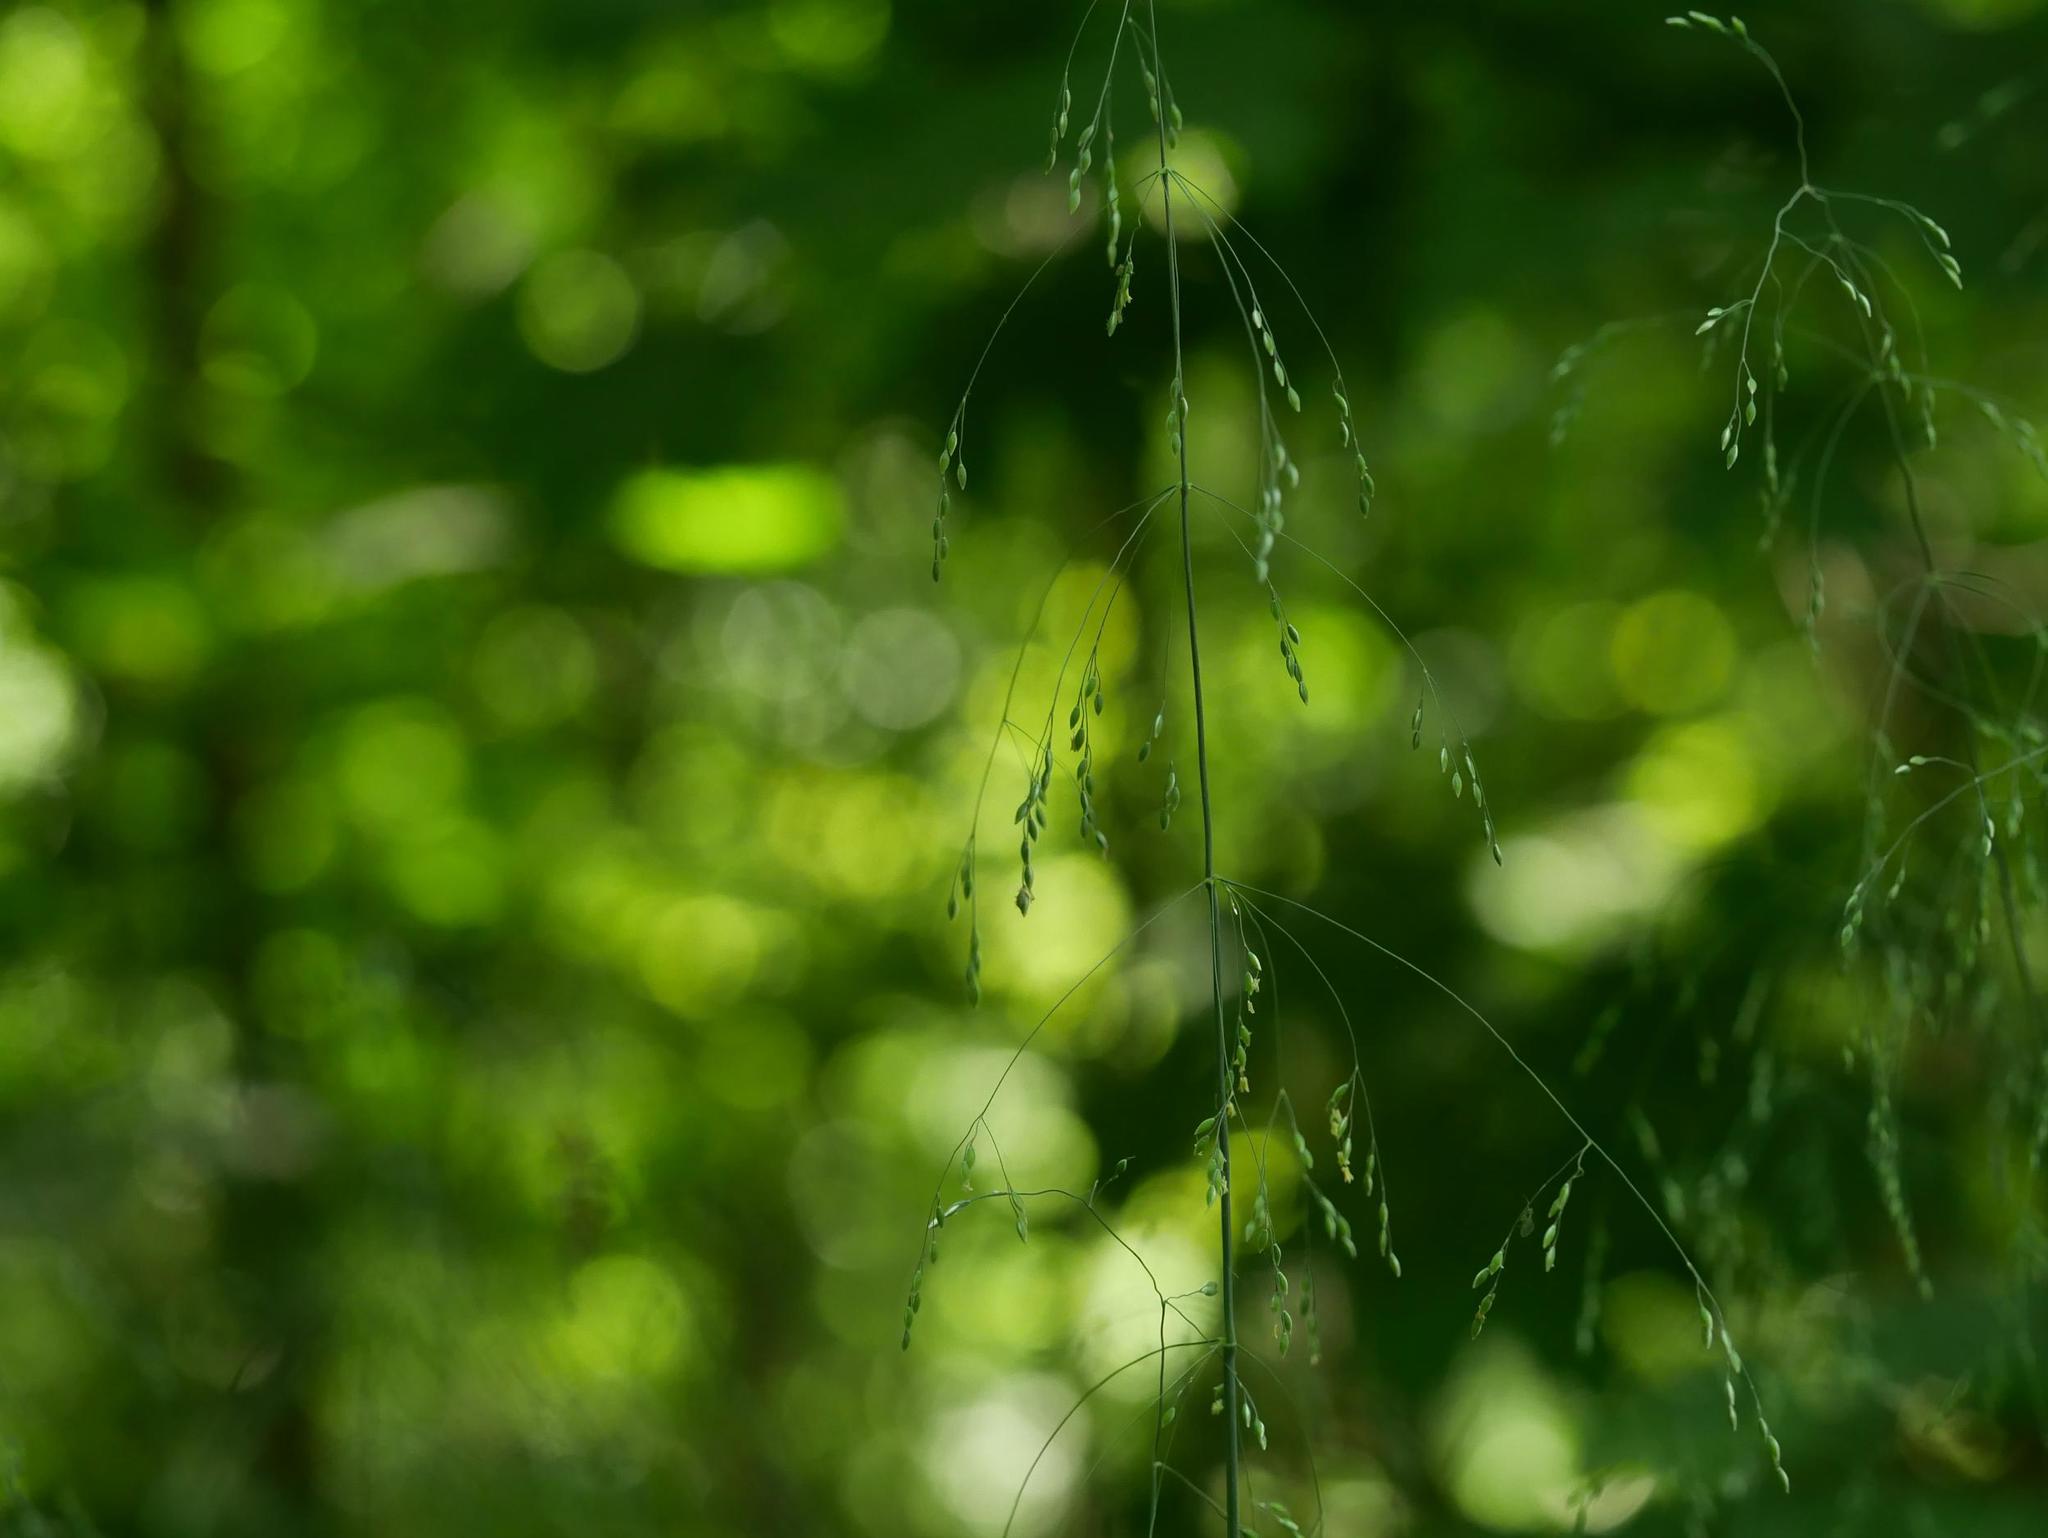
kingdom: Plantae
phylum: Tracheophyta
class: Liliopsida
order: Poales
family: Poaceae
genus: Milium
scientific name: Milium effusum
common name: Wood millet
